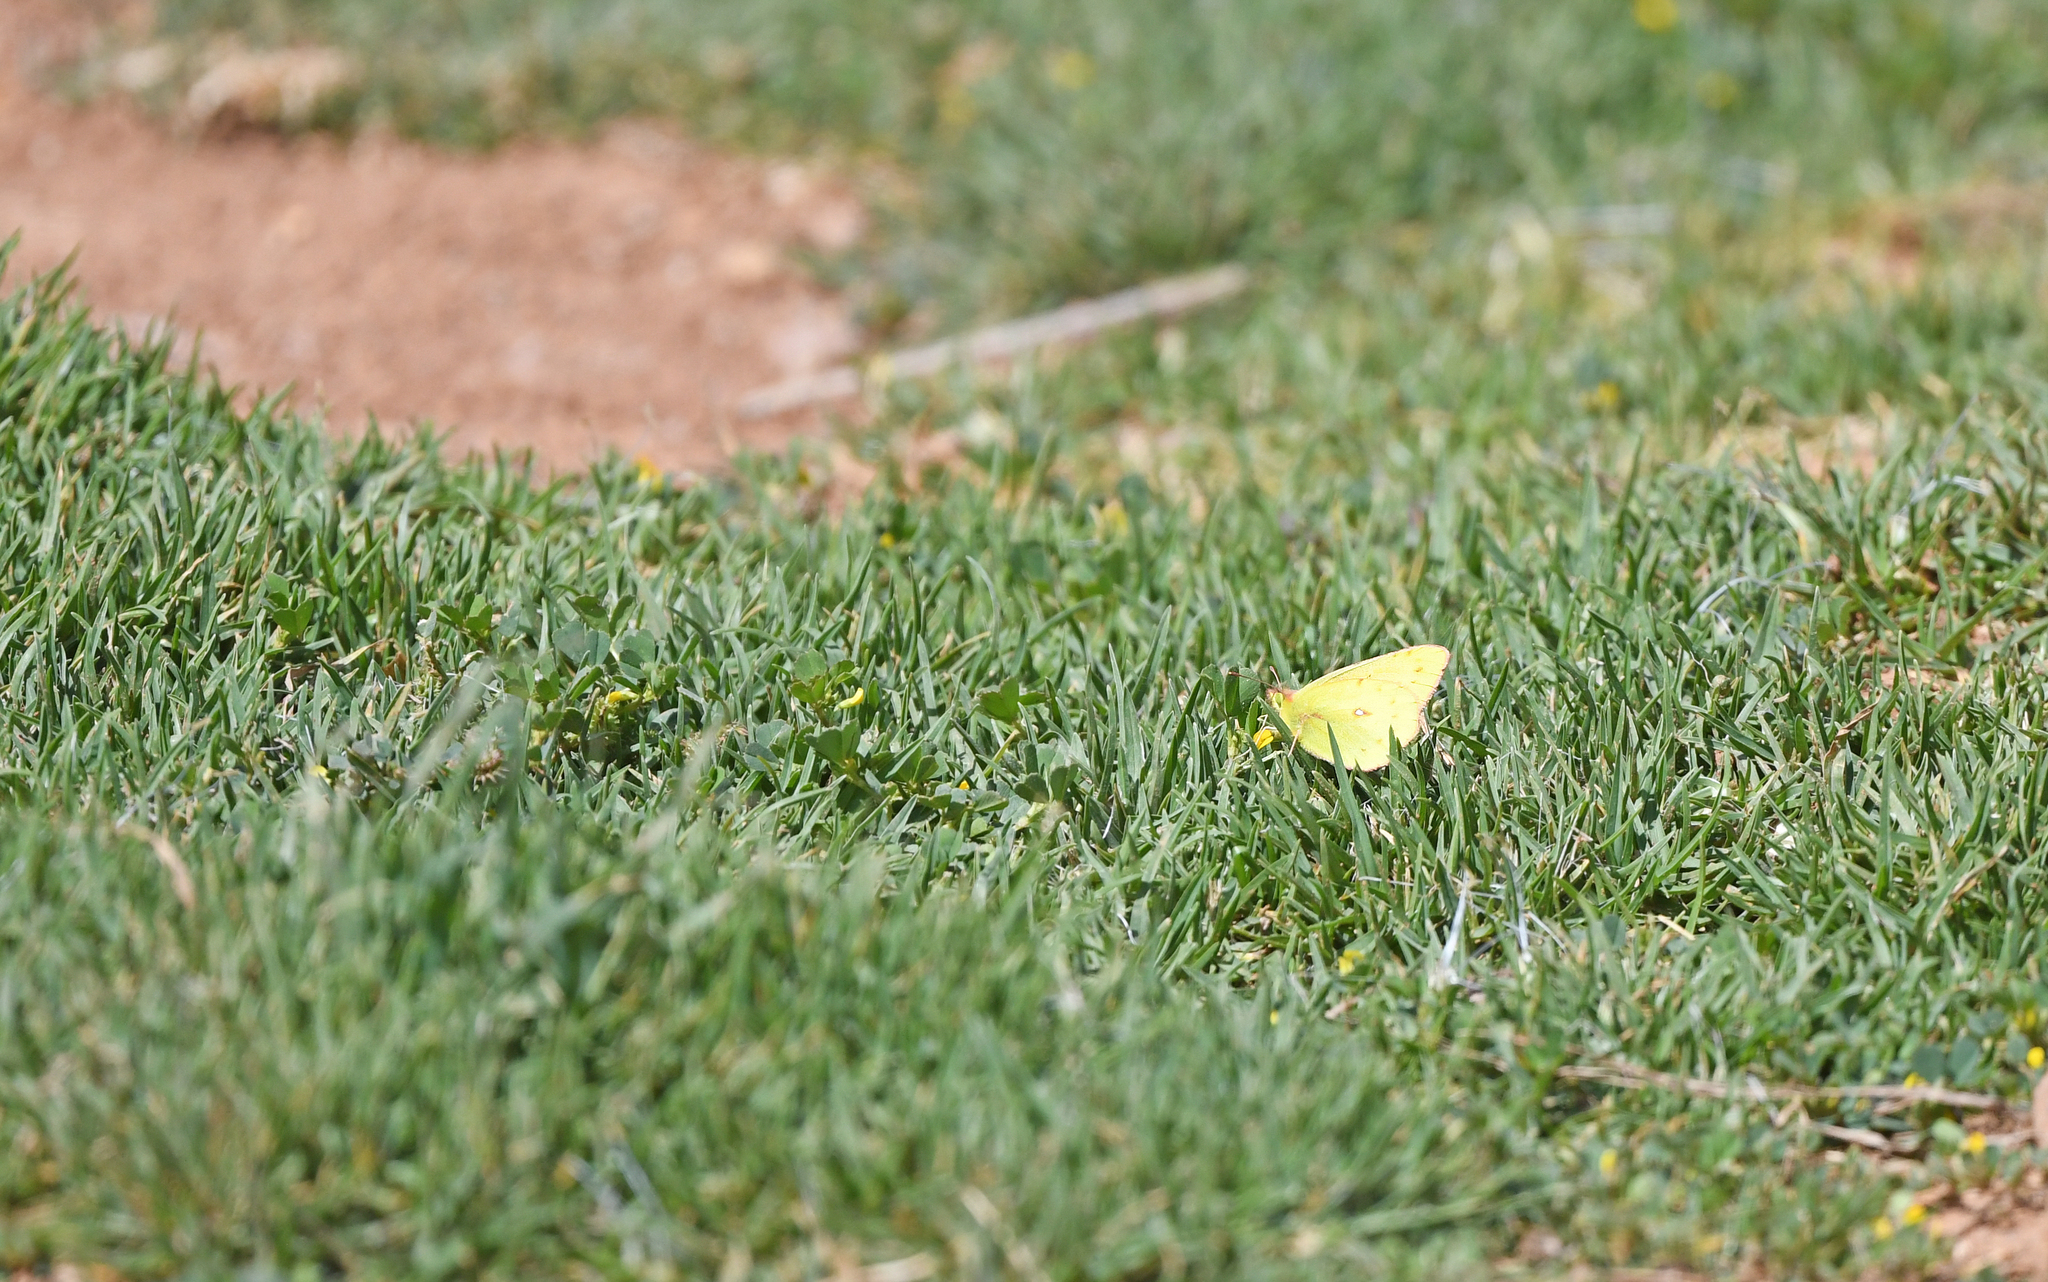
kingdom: Animalia
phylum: Arthropoda
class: Insecta
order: Lepidoptera
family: Pieridae
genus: Colias
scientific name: Colias lesbia
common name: Lesbia clouded yellow
